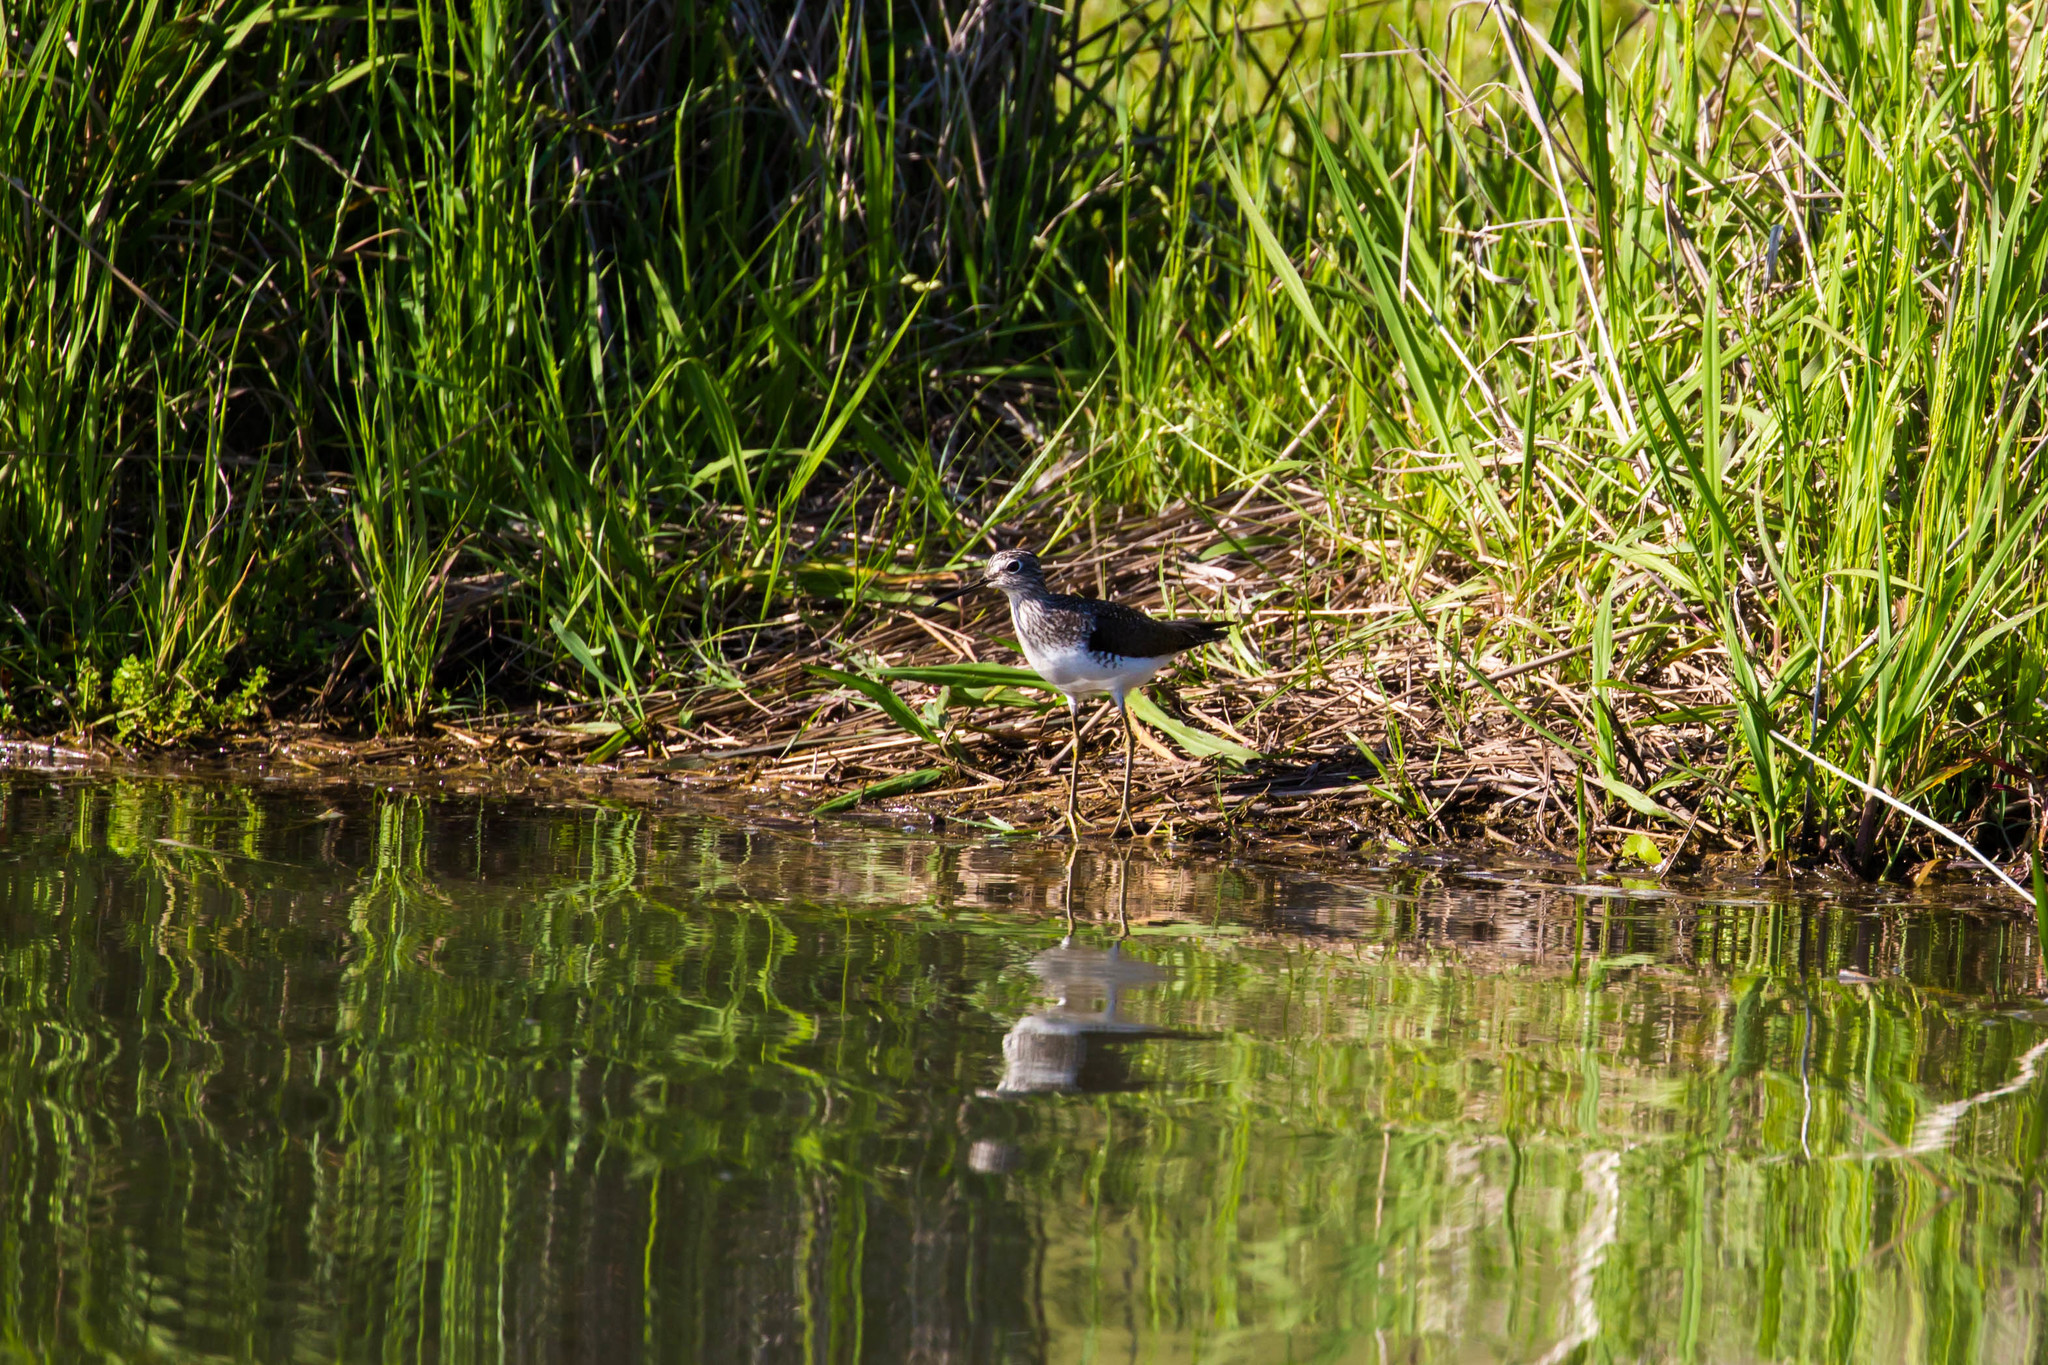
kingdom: Animalia
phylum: Chordata
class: Aves
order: Charadriiformes
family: Scolopacidae
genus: Tringa
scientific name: Tringa solitaria
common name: Solitary sandpiper
